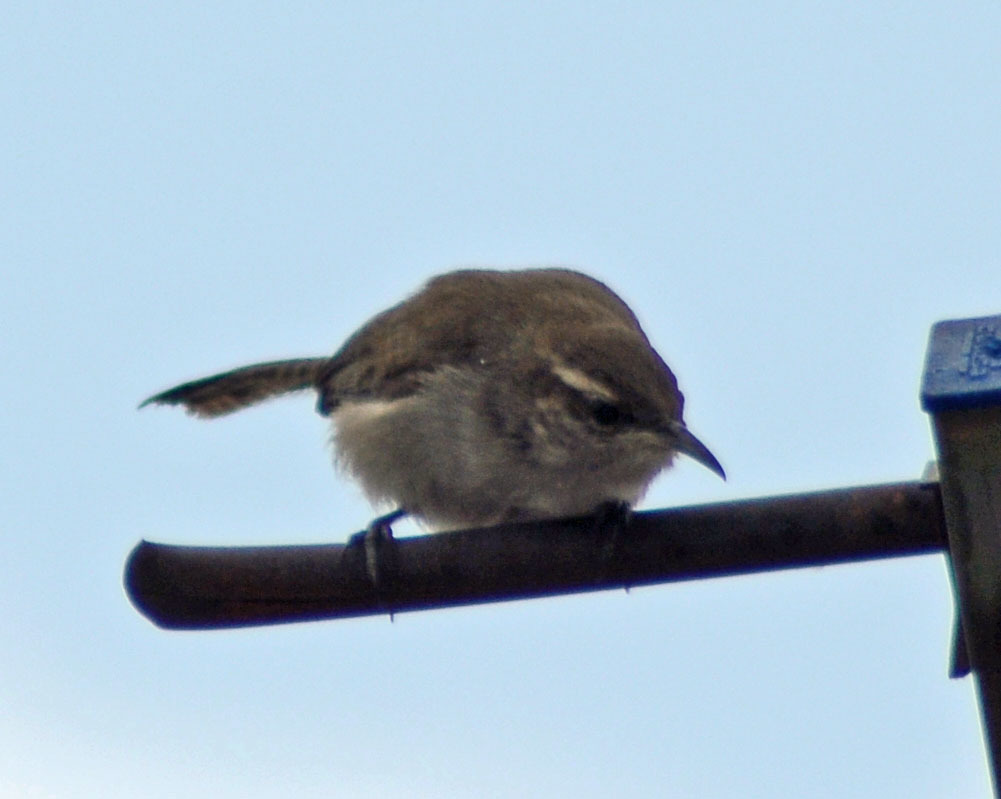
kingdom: Animalia
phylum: Chordata
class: Aves
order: Passeriformes
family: Troglodytidae
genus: Thryomanes
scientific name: Thryomanes bewickii
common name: Bewick's wren
